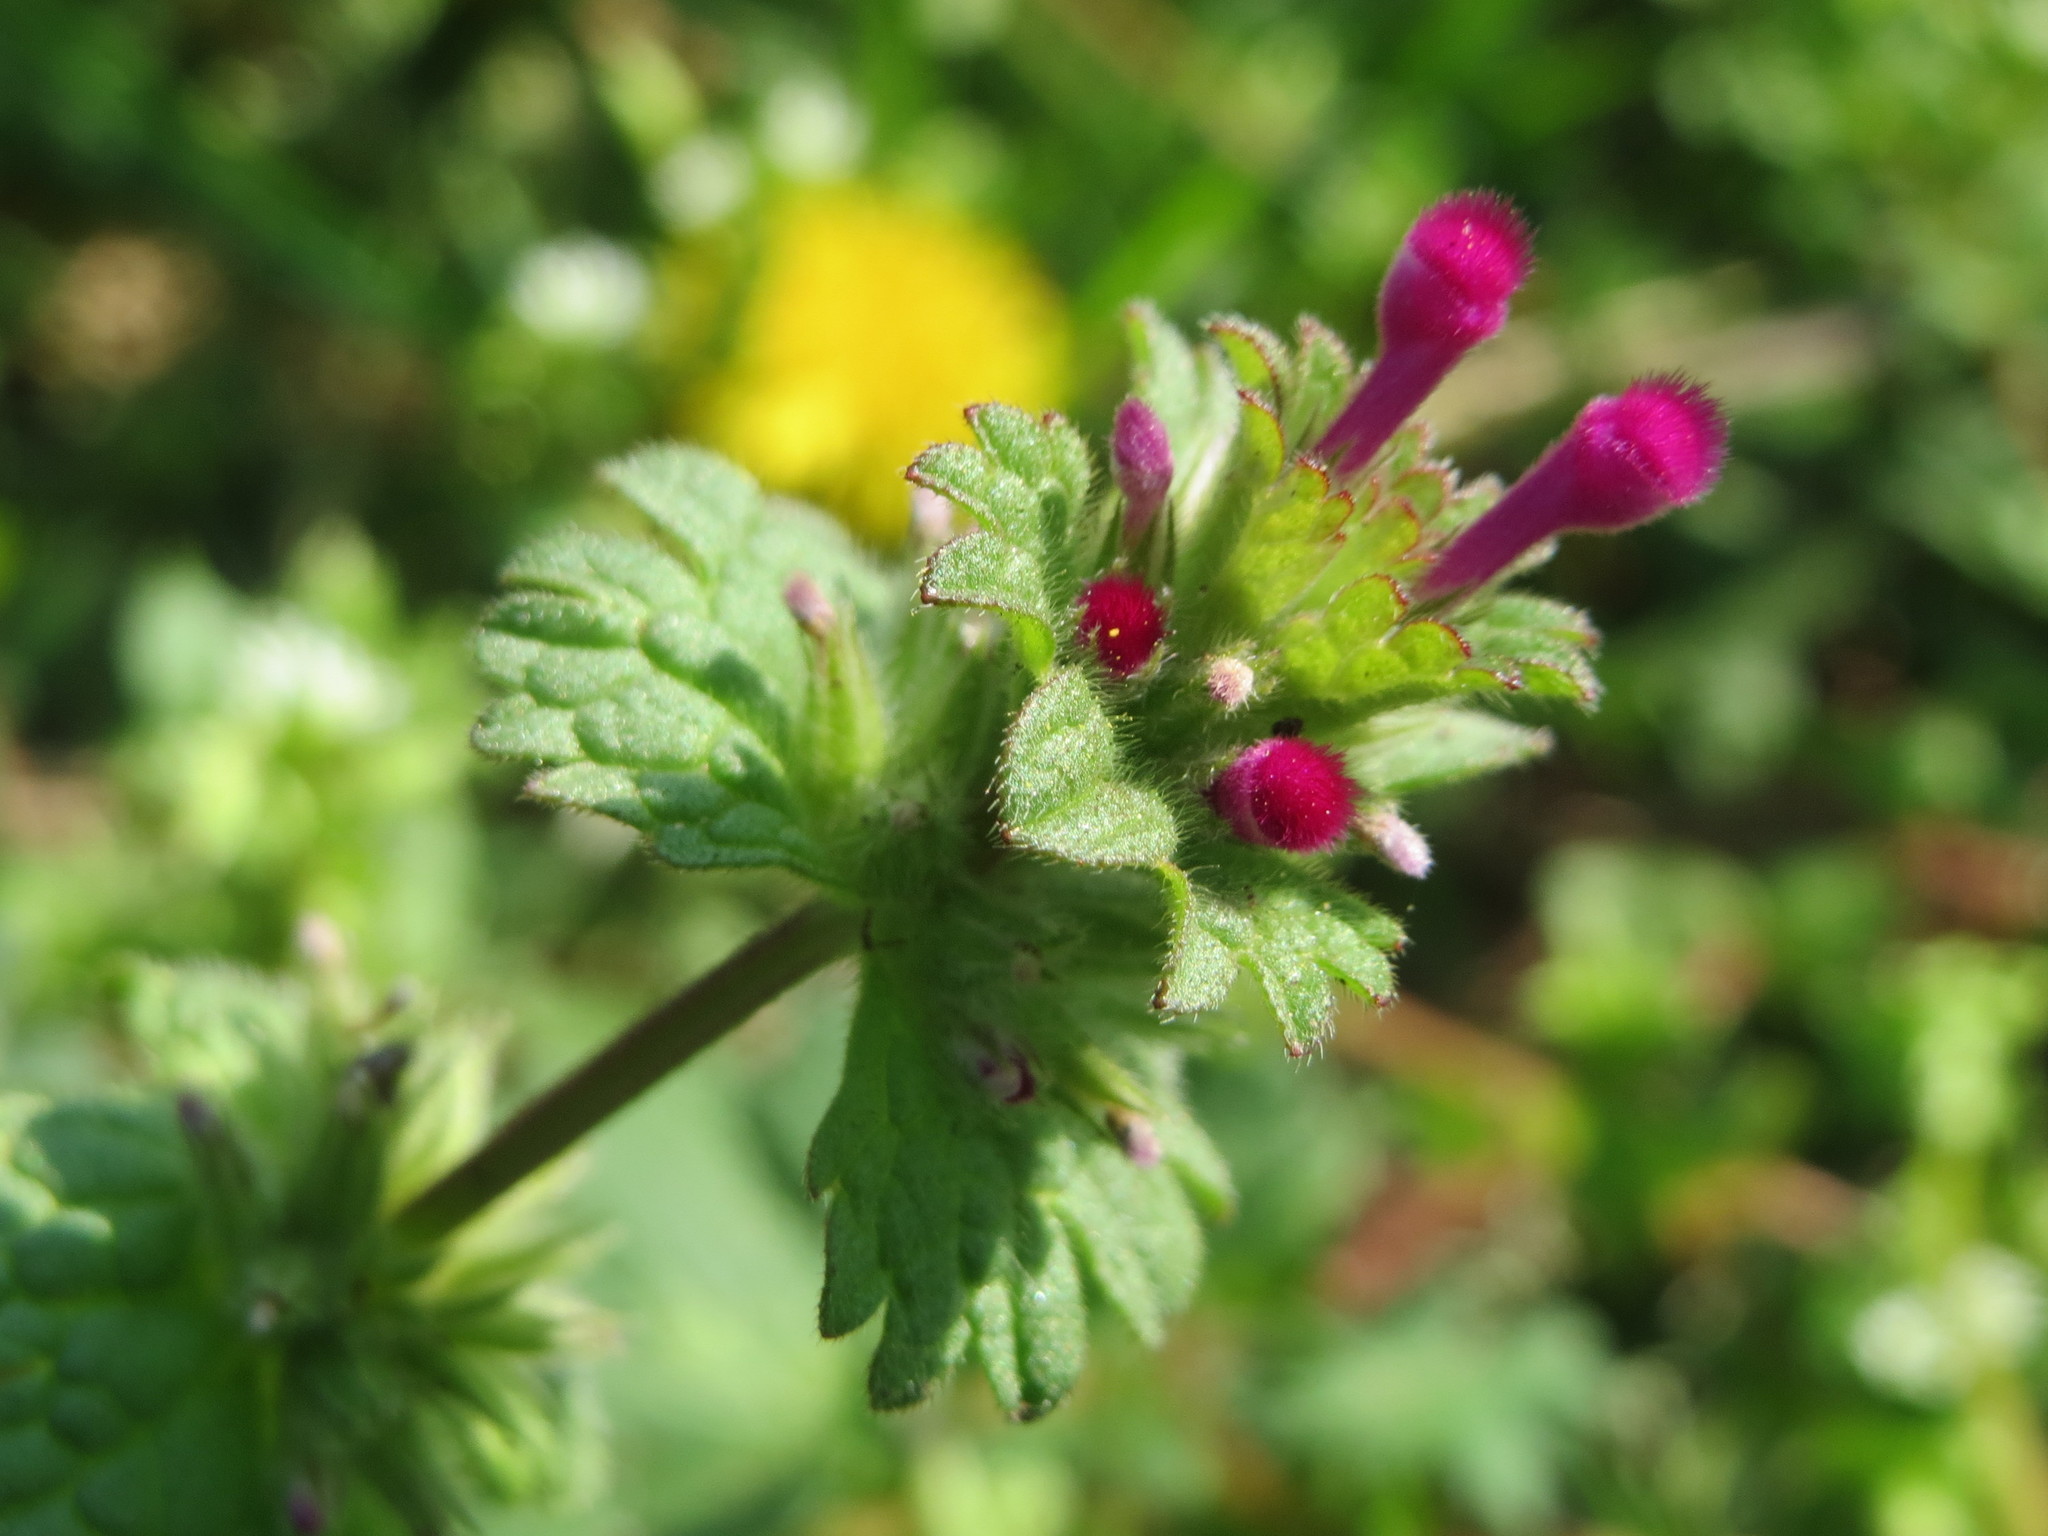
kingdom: Plantae
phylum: Tracheophyta
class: Magnoliopsida
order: Lamiales
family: Lamiaceae
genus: Lamium
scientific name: Lamium amplexicaule
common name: Henbit dead-nettle
